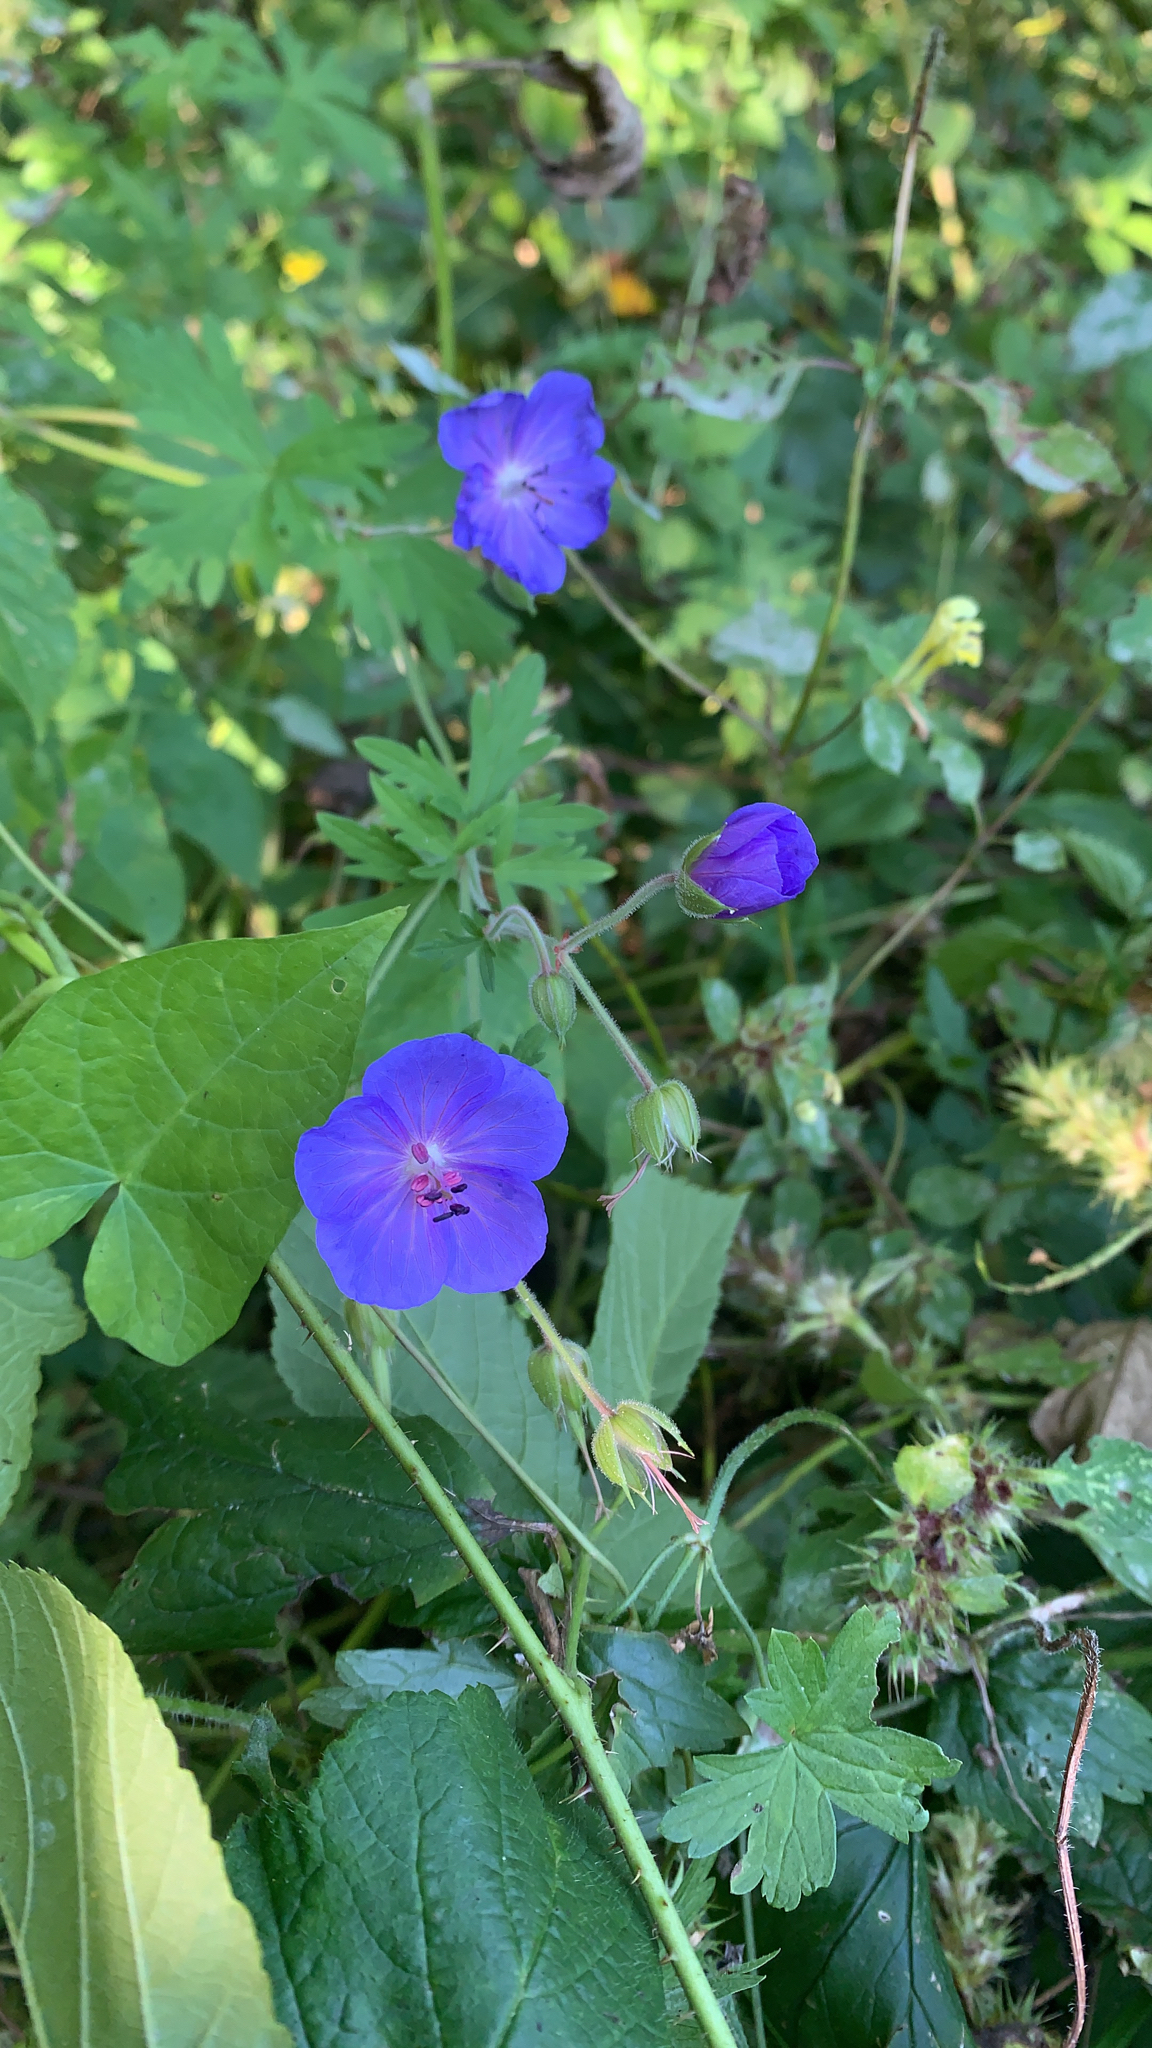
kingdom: Plantae
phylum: Tracheophyta
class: Magnoliopsida
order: Geraniales
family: Geraniaceae
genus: Geranium
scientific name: Geranium pratense
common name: Meadow crane's-bill
